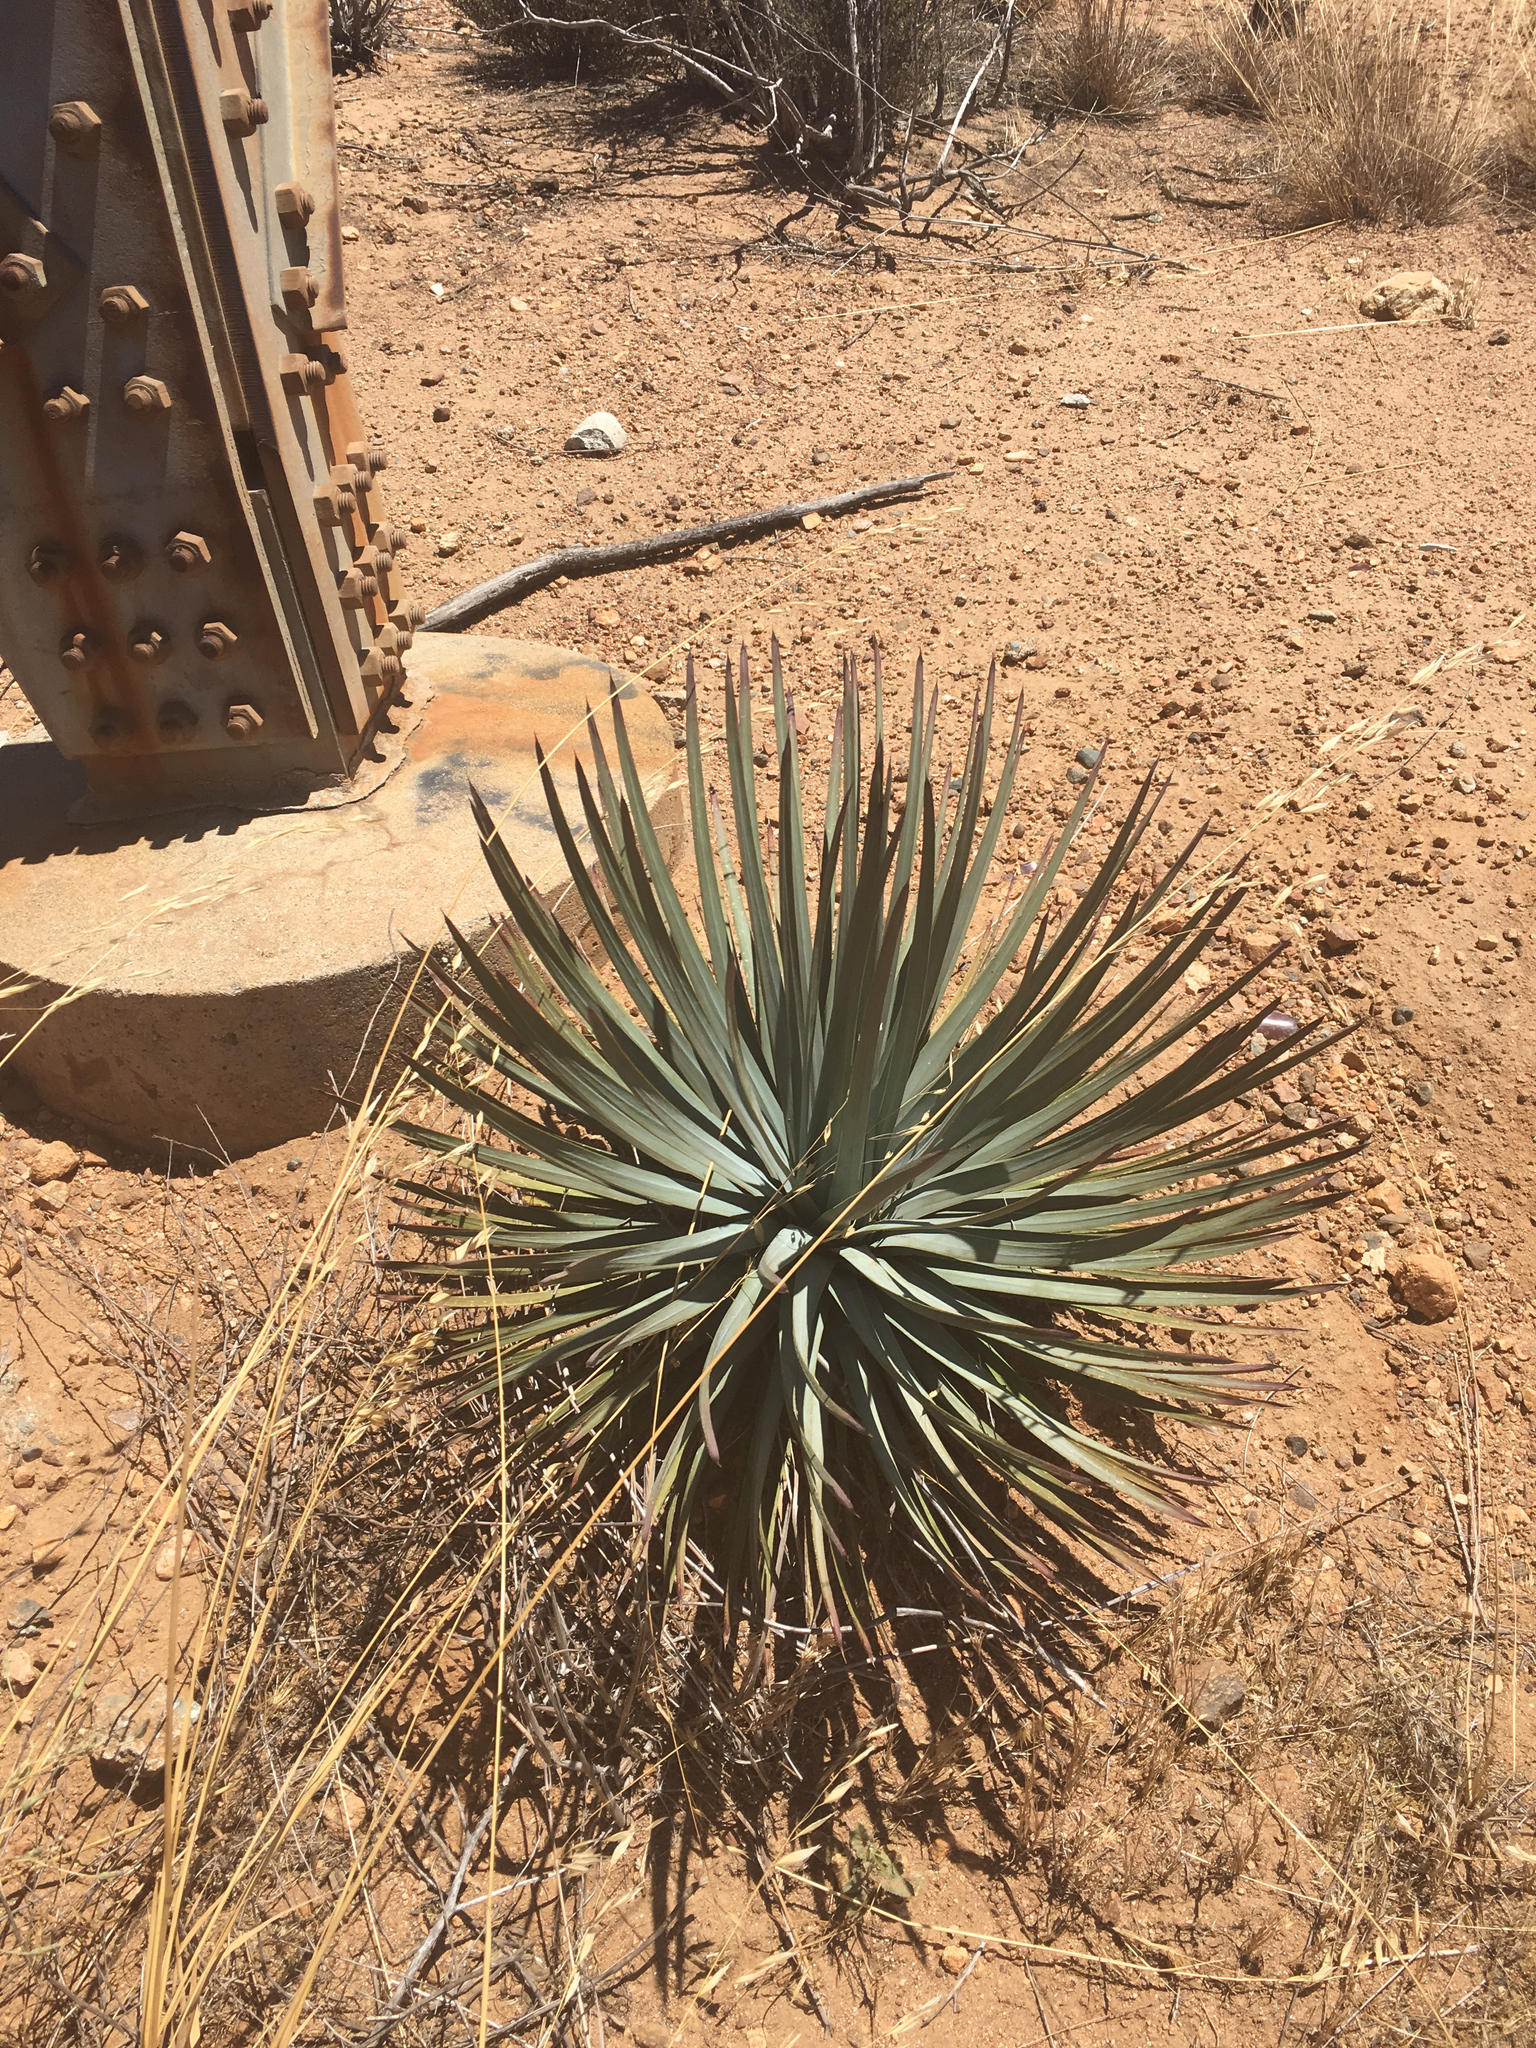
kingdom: Plantae
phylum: Tracheophyta
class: Liliopsida
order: Asparagales
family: Asparagaceae
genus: Hesperoyucca
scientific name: Hesperoyucca whipplei
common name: Our lord's-candle
